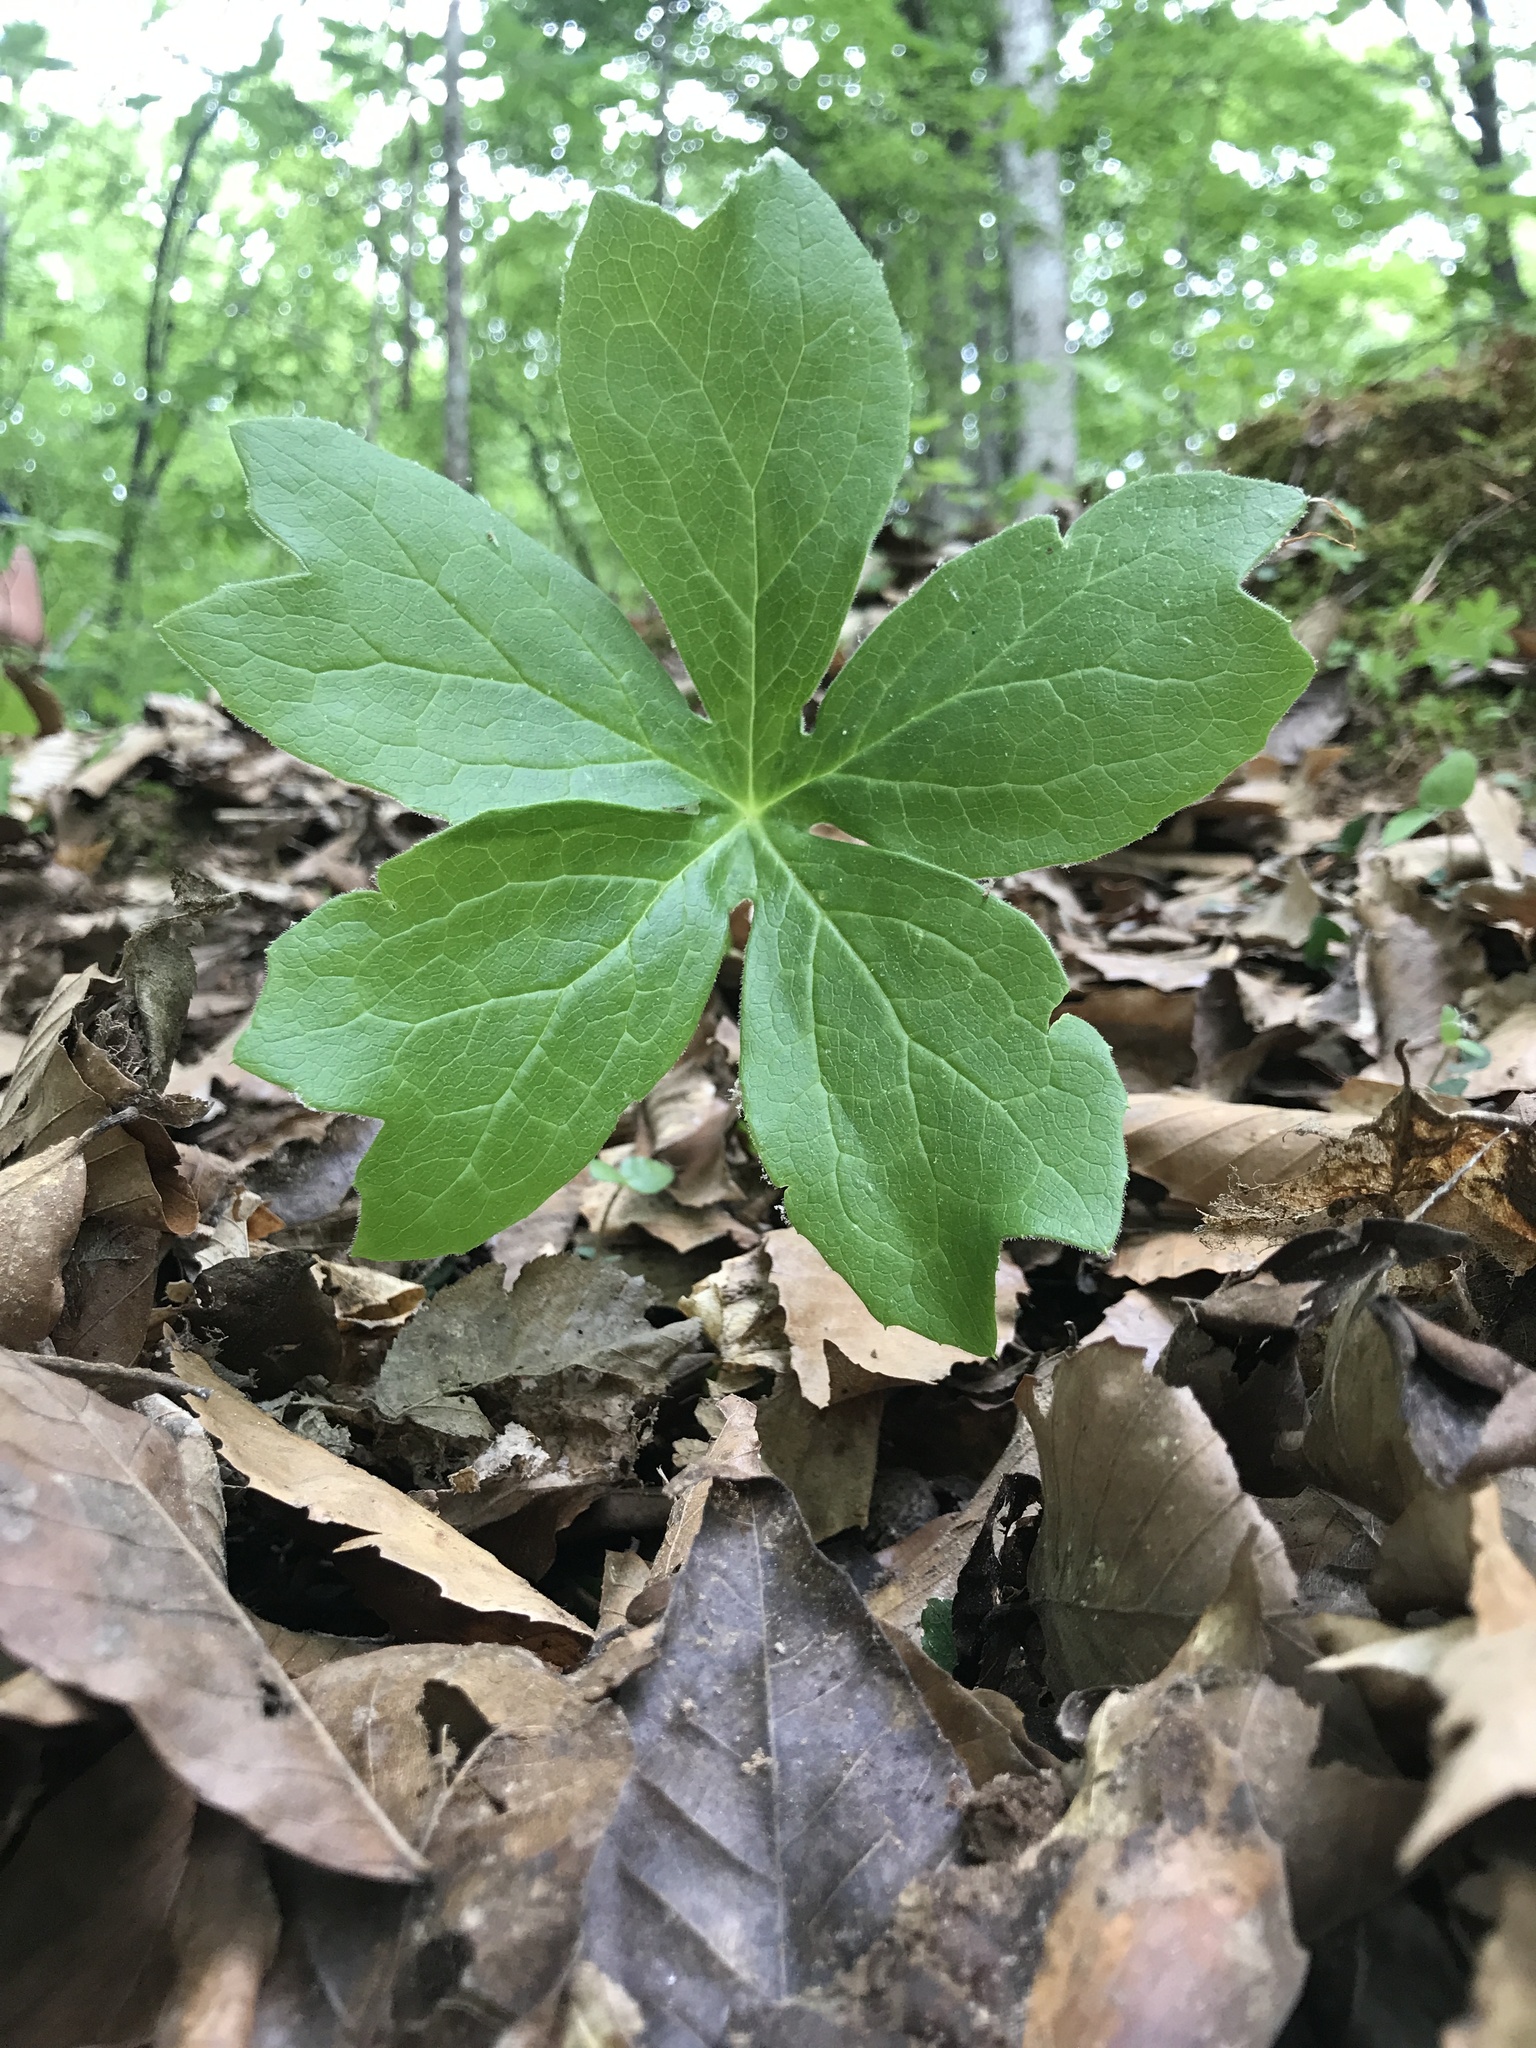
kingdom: Plantae
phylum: Tracheophyta
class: Magnoliopsida
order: Ranunculales
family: Berberidaceae
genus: Podophyllum
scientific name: Podophyllum peltatum
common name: Wild mandrake
